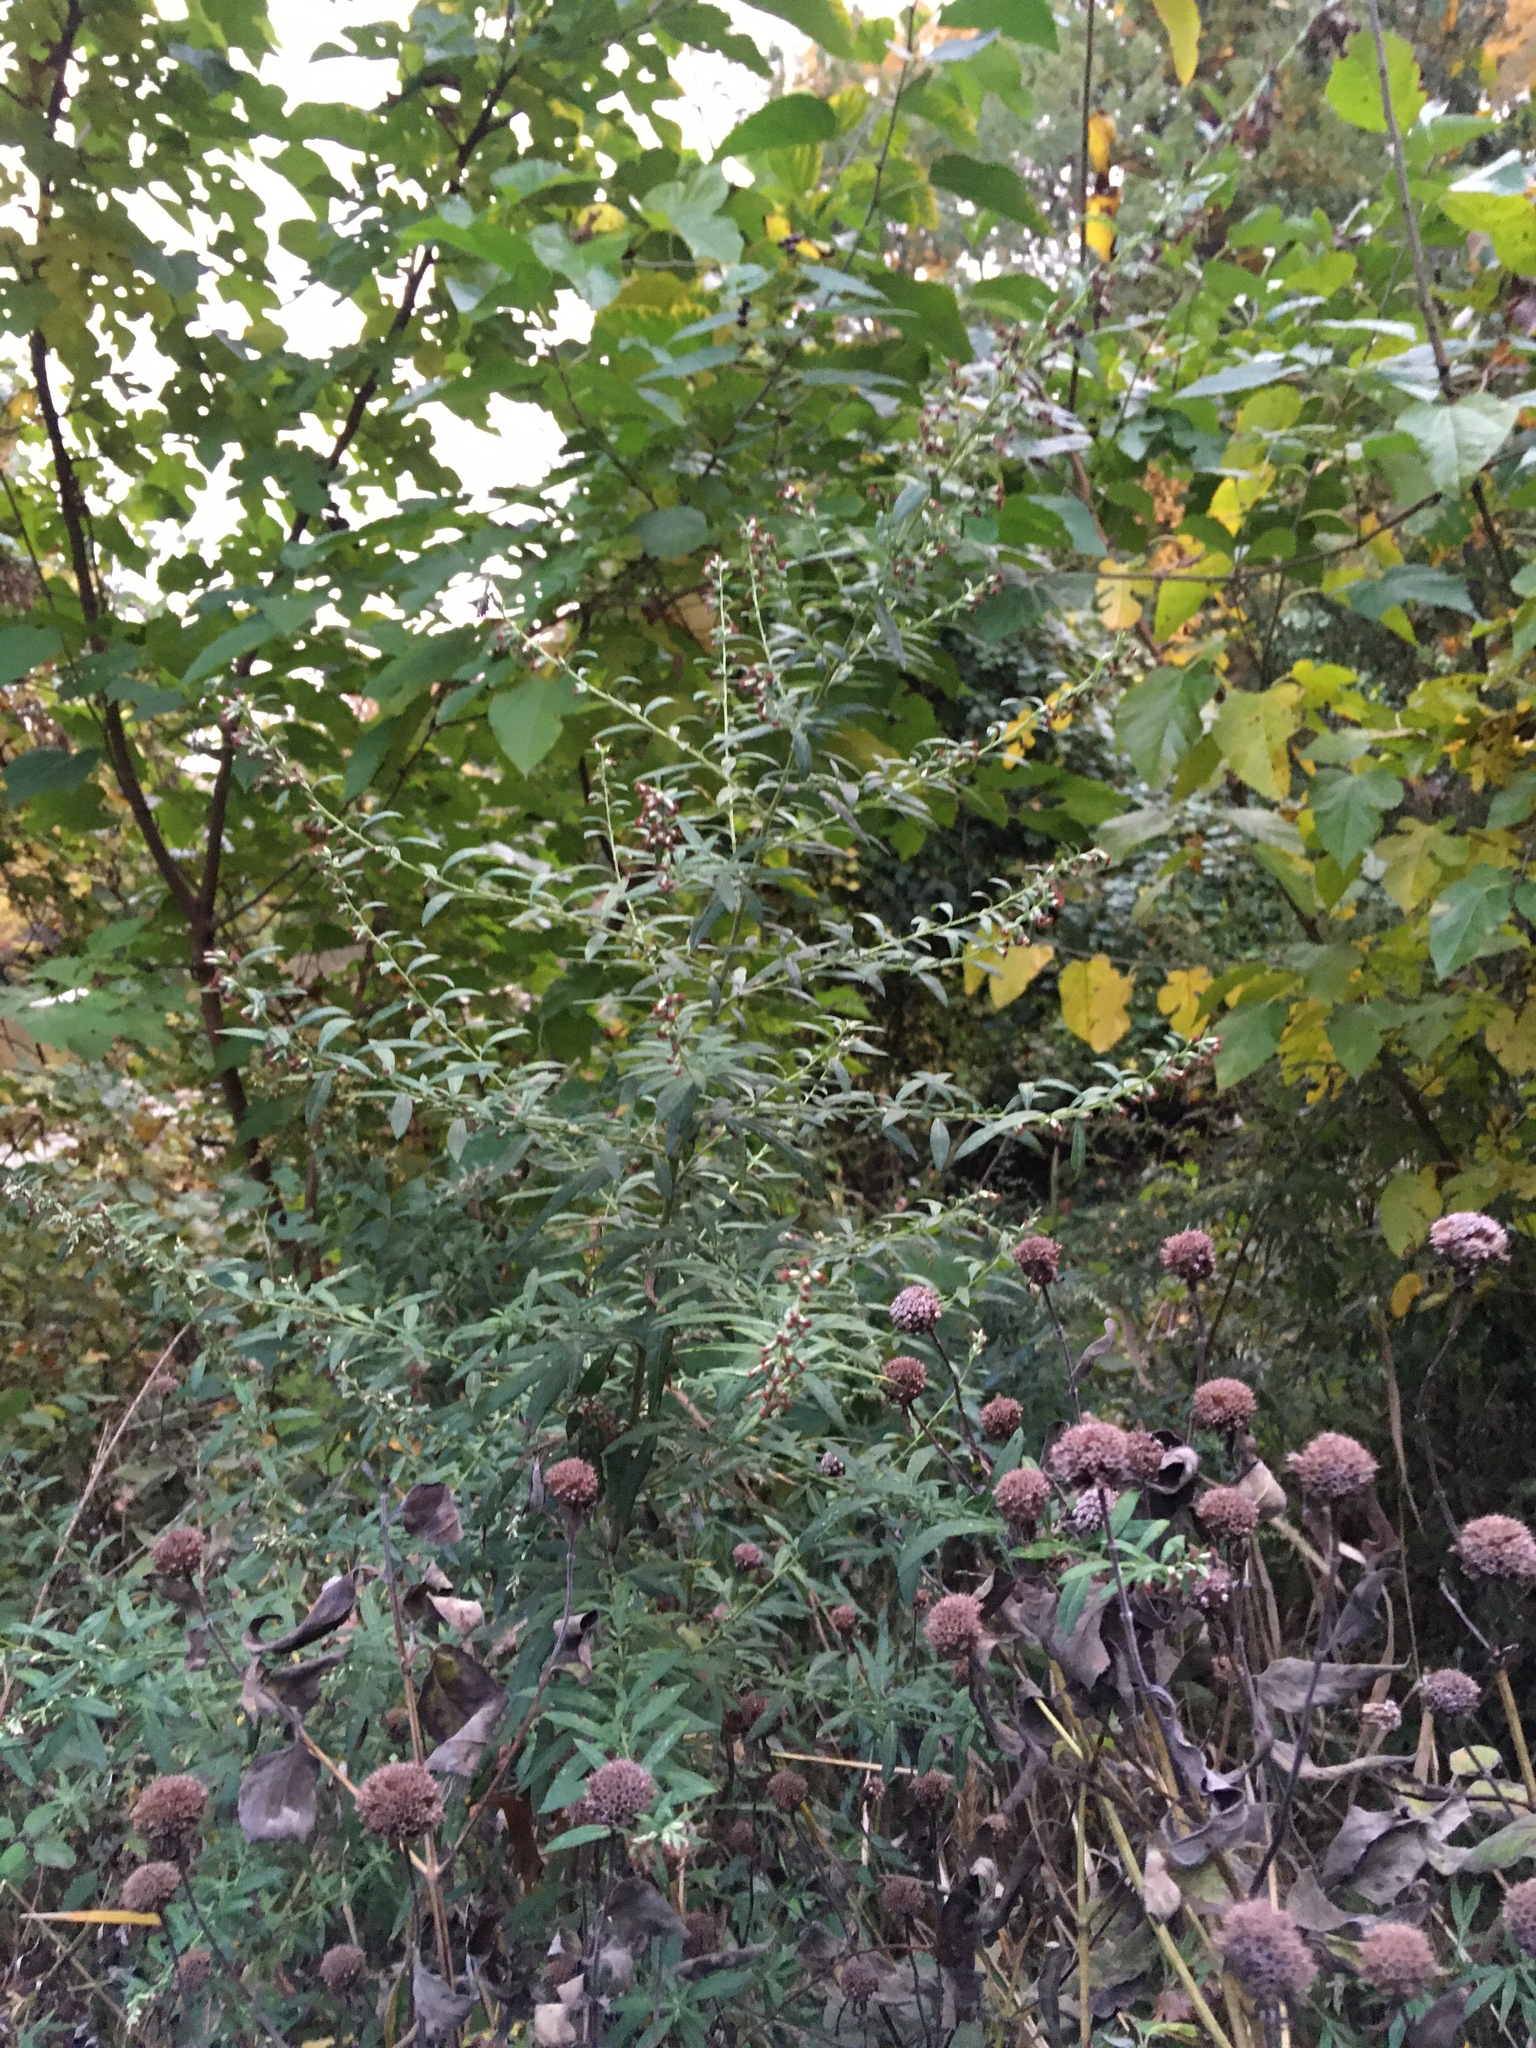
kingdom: Plantae
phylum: Tracheophyta
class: Magnoliopsida
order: Asterales
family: Asteraceae
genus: Artemisia
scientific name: Artemisia vulgaris
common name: Mugwort
